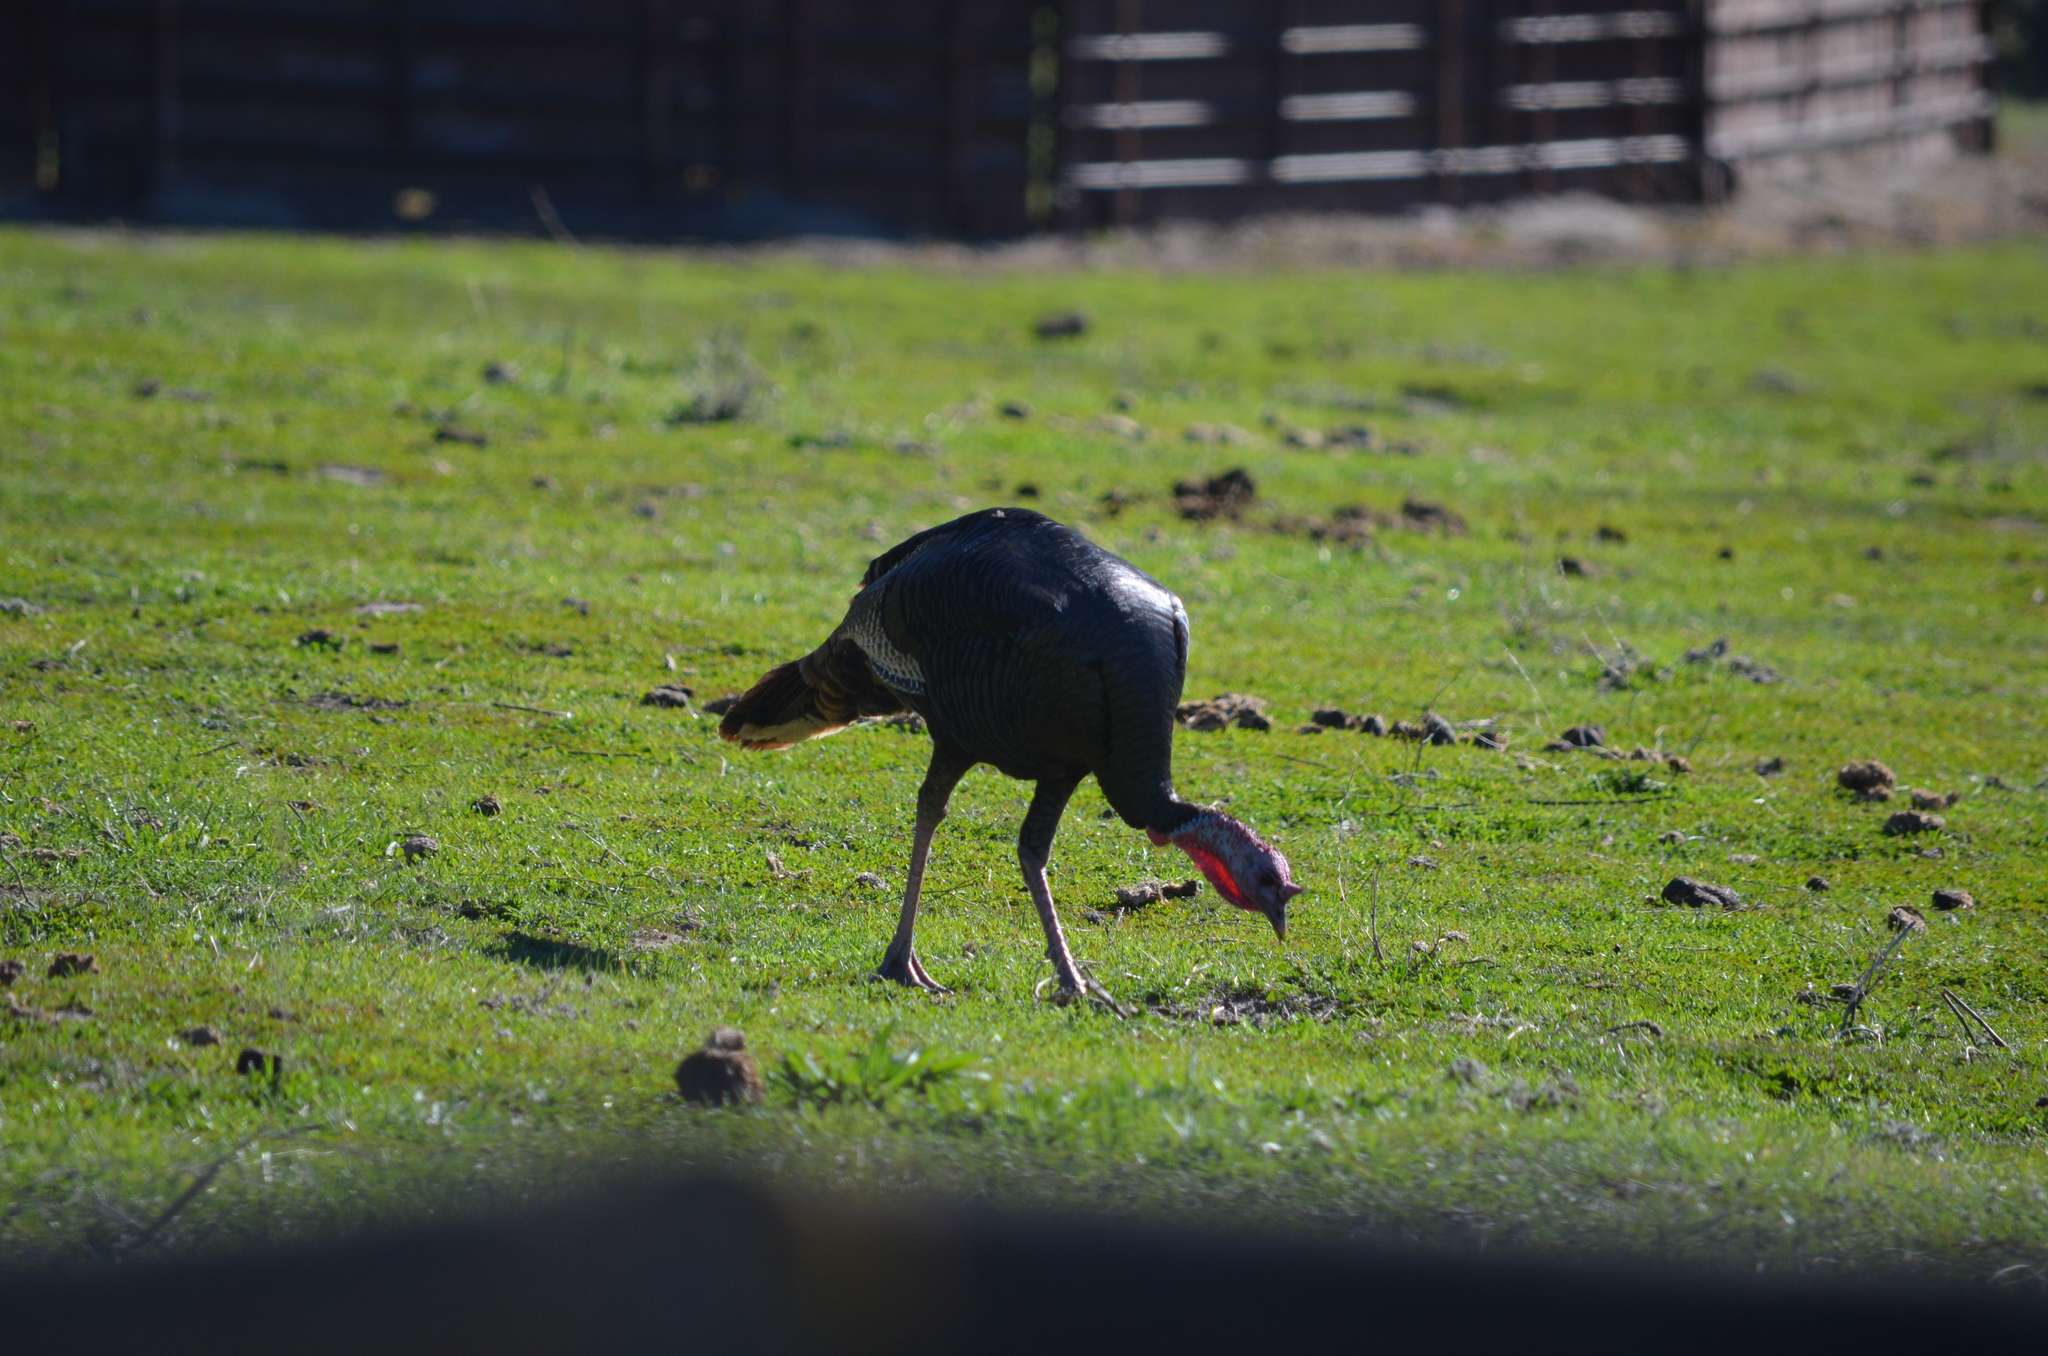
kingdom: Animalia
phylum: Chordata
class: Aves
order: Galliformes
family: Phasianidae
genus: Meleagris
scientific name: Meleagris gallopavo
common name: Wild turkey
